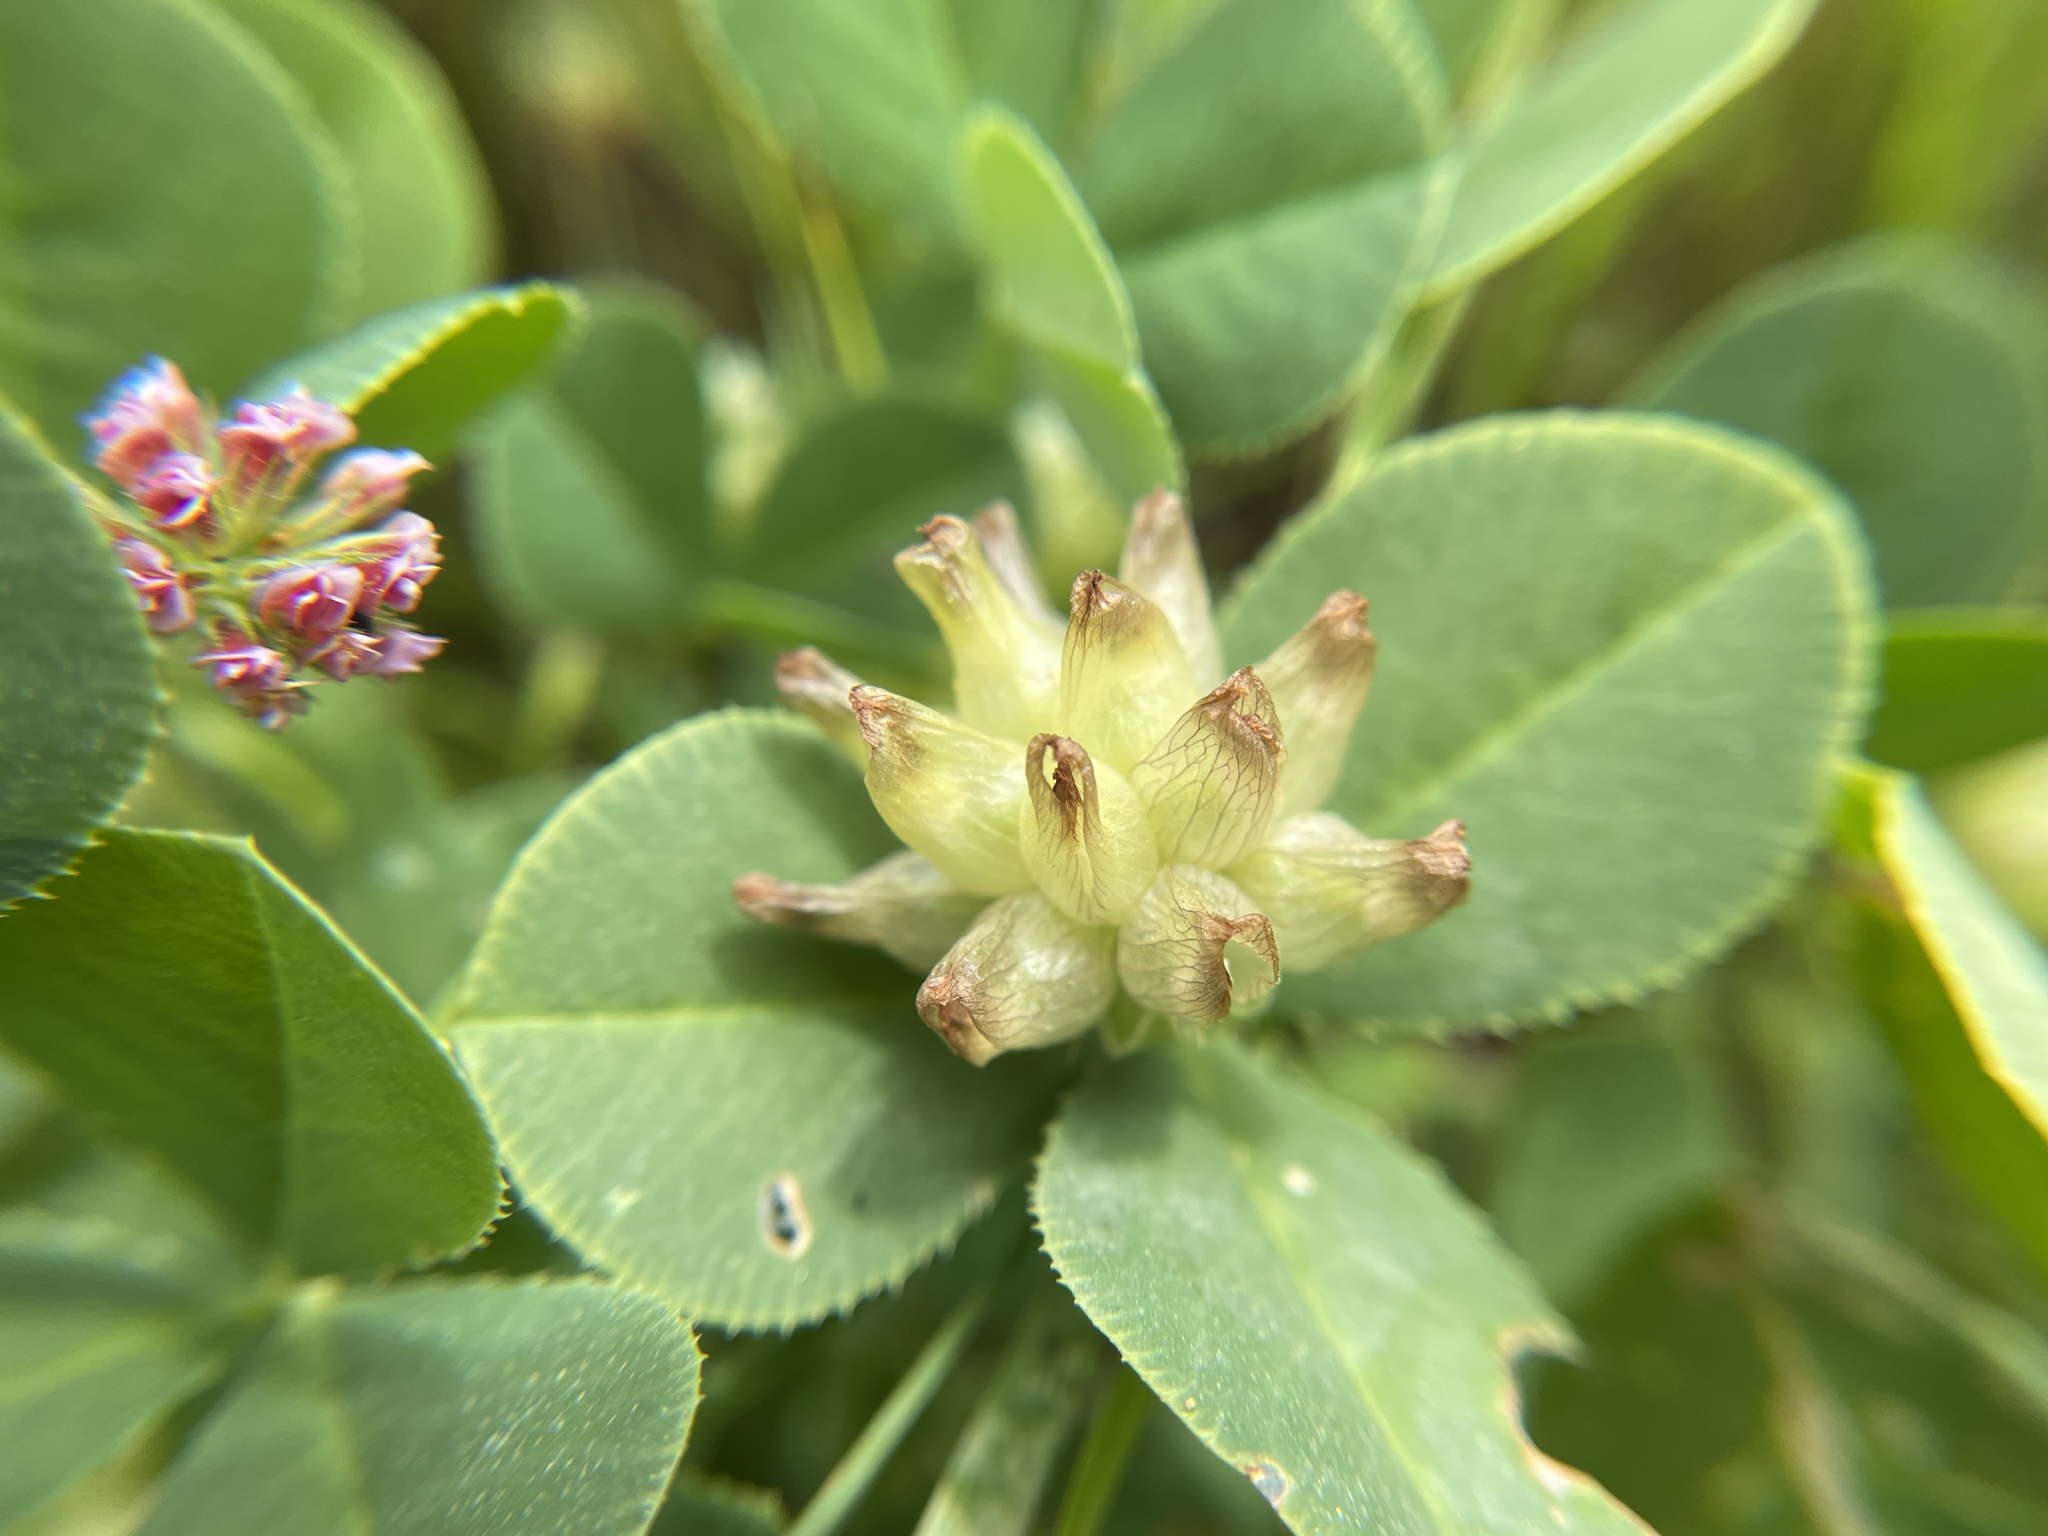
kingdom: Plantae
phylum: Tracheophyta
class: Magnoliopsida
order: Fabales
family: Fabaceae
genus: Trifolium
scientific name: Trifolium fucatum
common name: Puff clover
